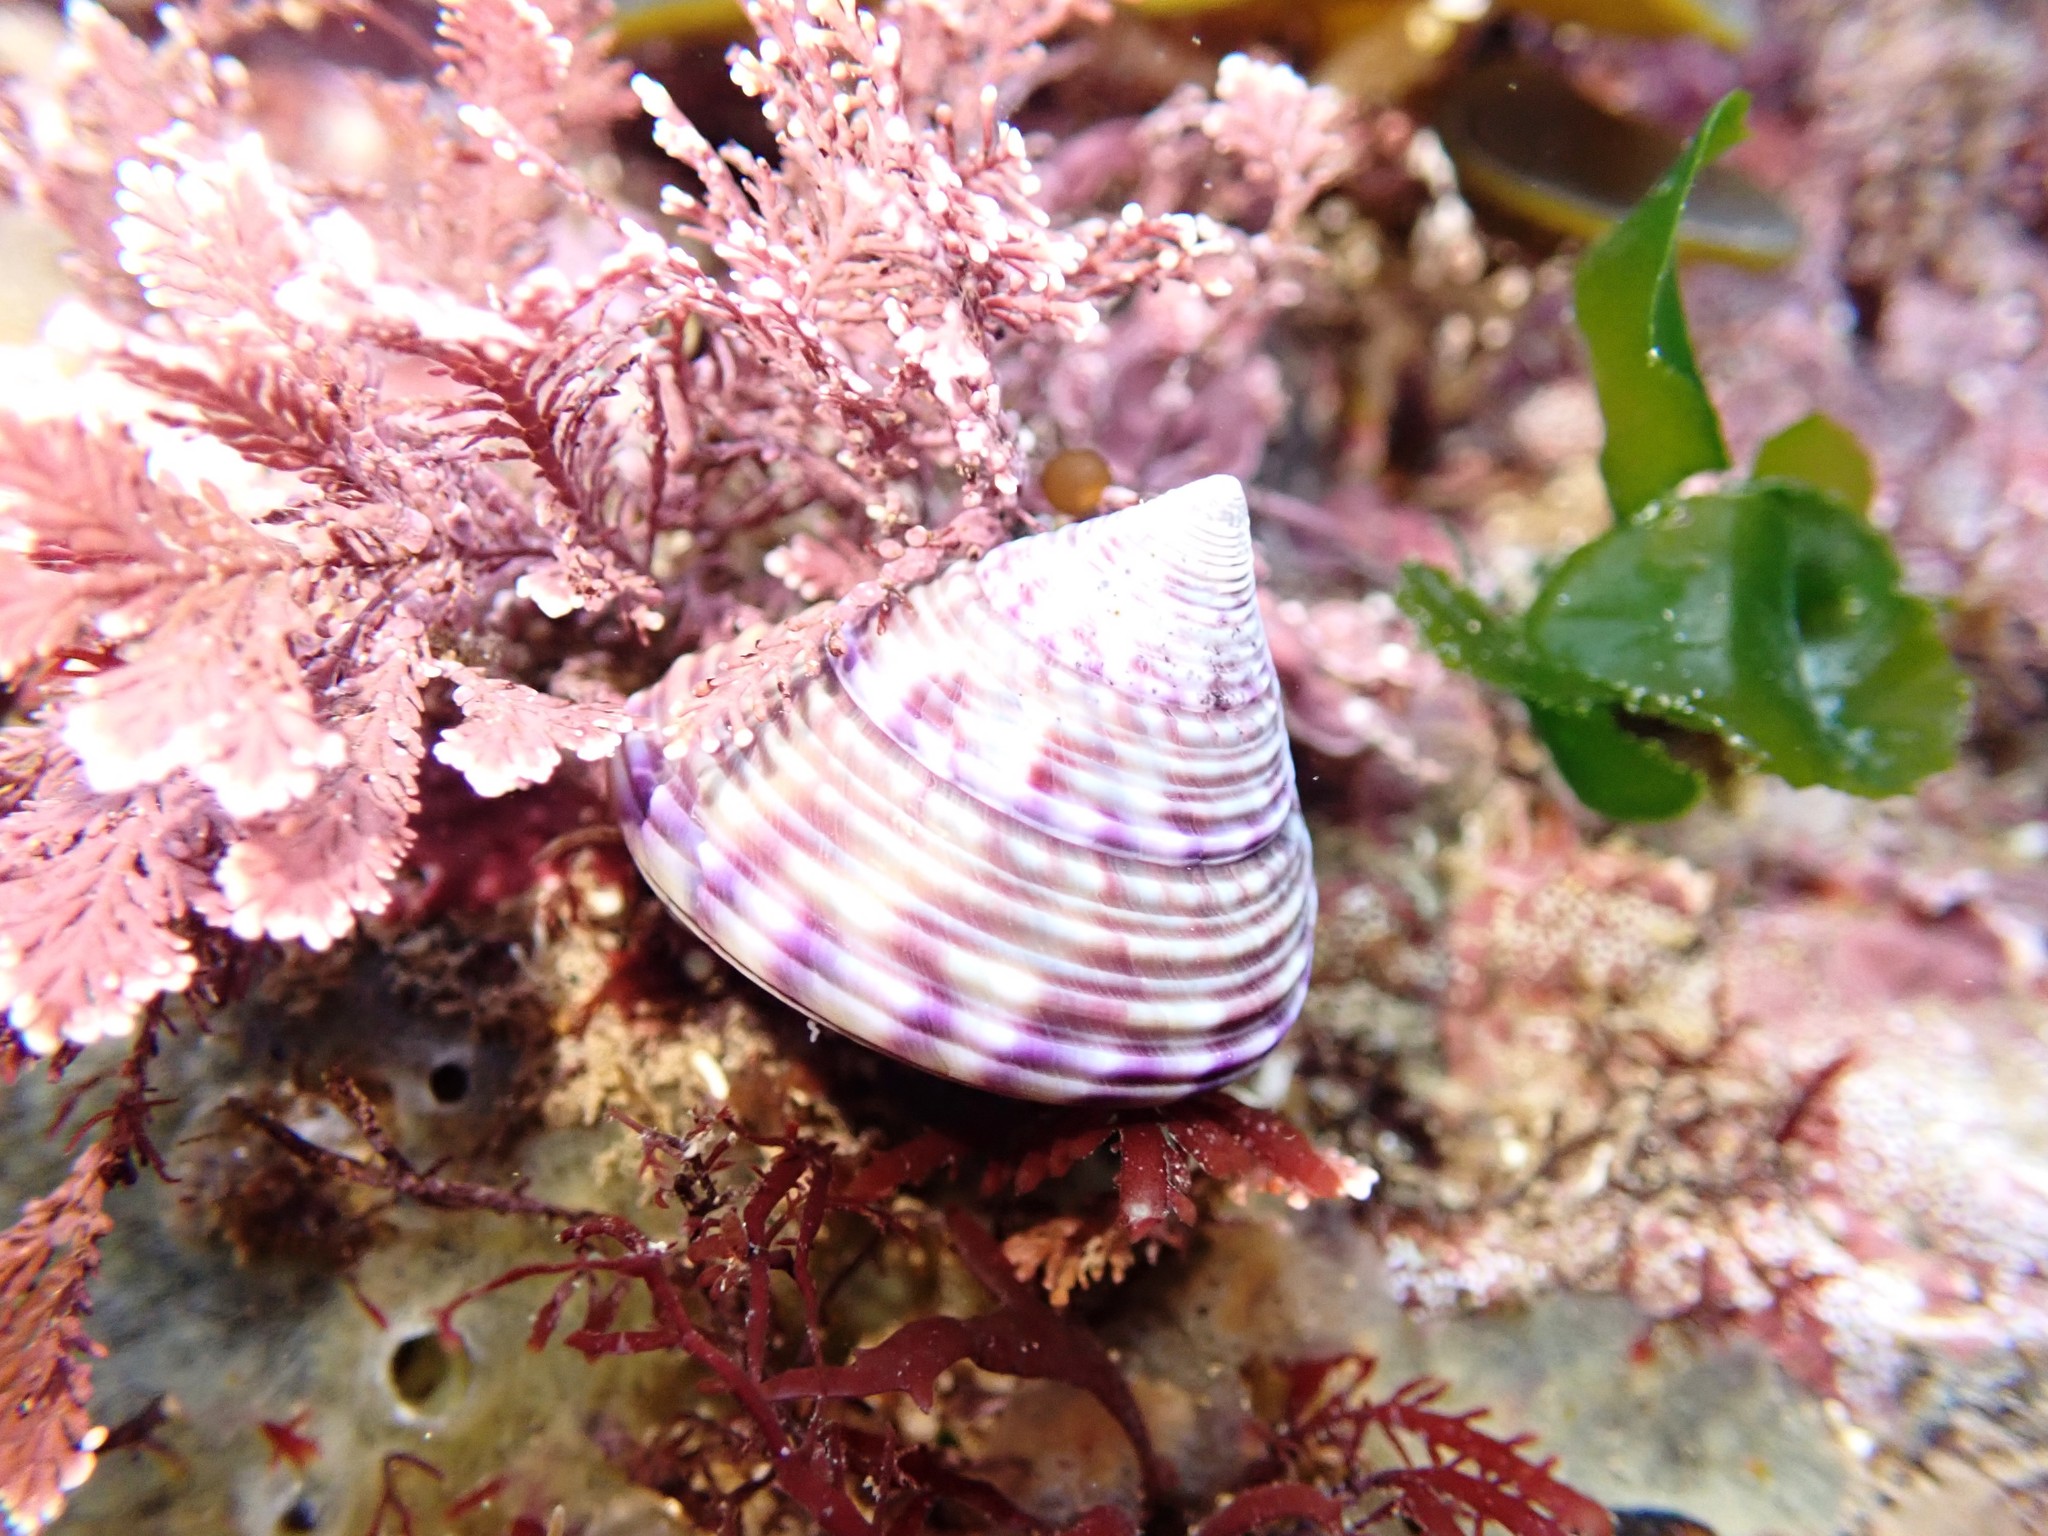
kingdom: Animalia
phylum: Mollusca
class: Gastropoda
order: Trochida
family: Calliostomatidae
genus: Calliostoma
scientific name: Calliostoma zizyphinum
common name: Painted top shell
